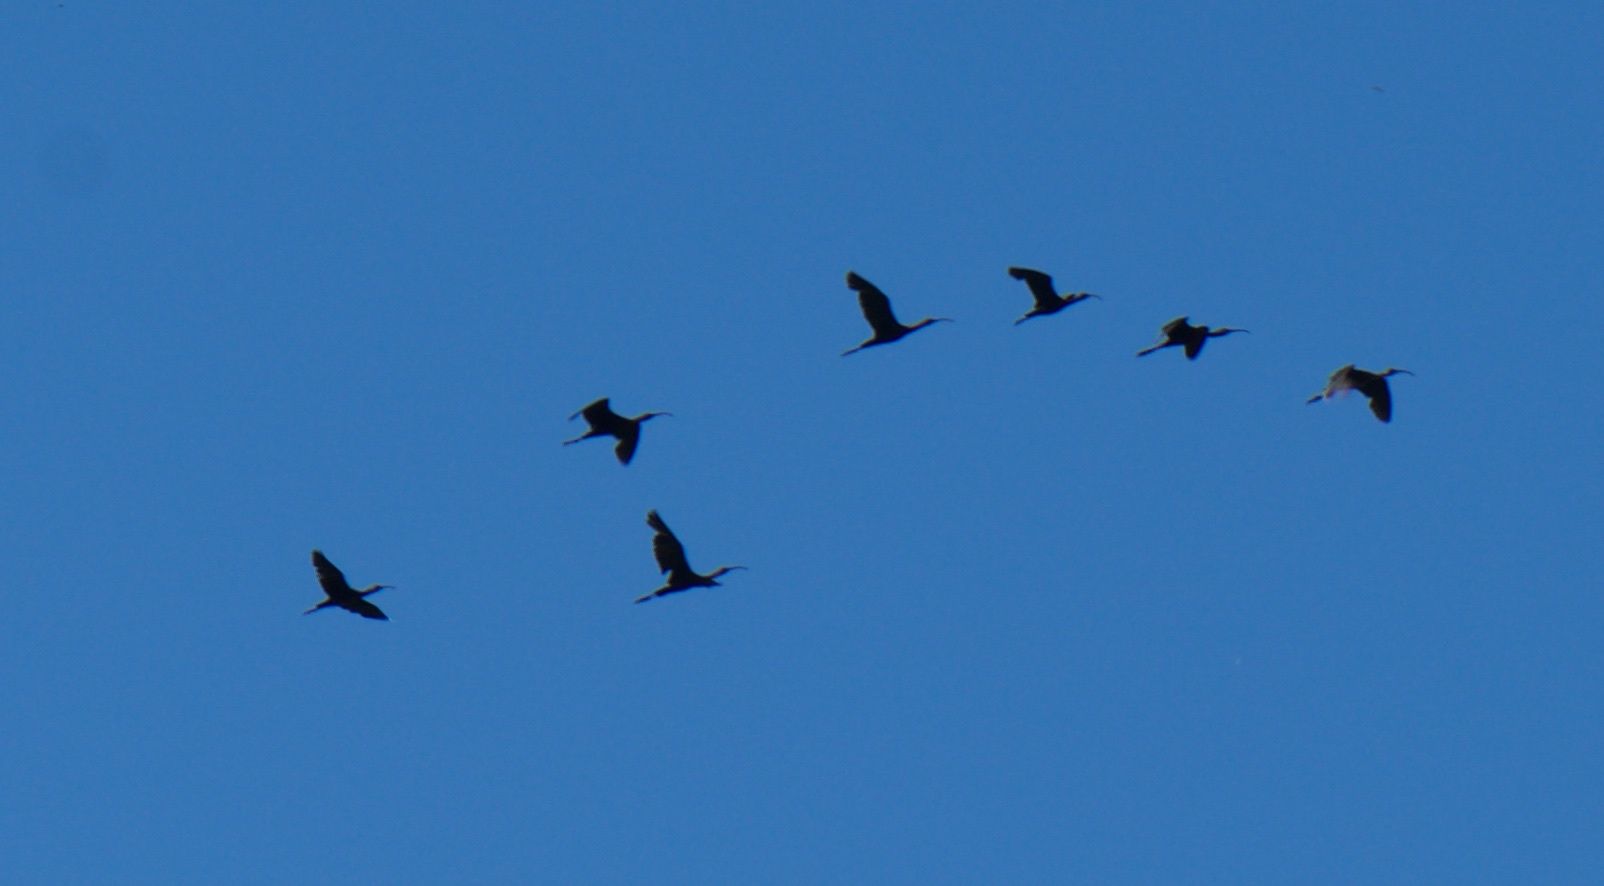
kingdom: Animalia
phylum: Chordata
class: Aves
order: Pelecaniformes
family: Threskiornithidae
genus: Plegadis
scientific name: Plegadis chihi
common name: White-faced ibis
